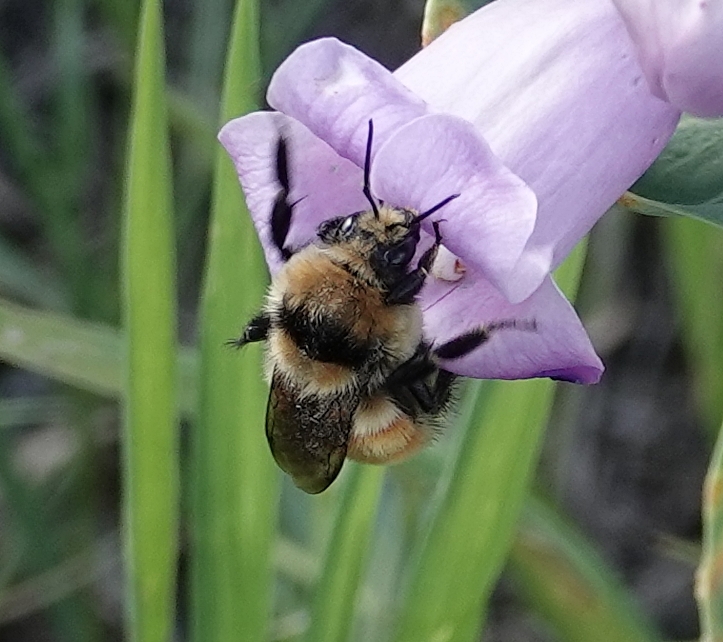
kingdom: Animalia
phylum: Arthropoda
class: Insecta
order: Hymenoptera
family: Apidae
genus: Bombus
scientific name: Bombus huntii
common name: Hunt bumble bee
